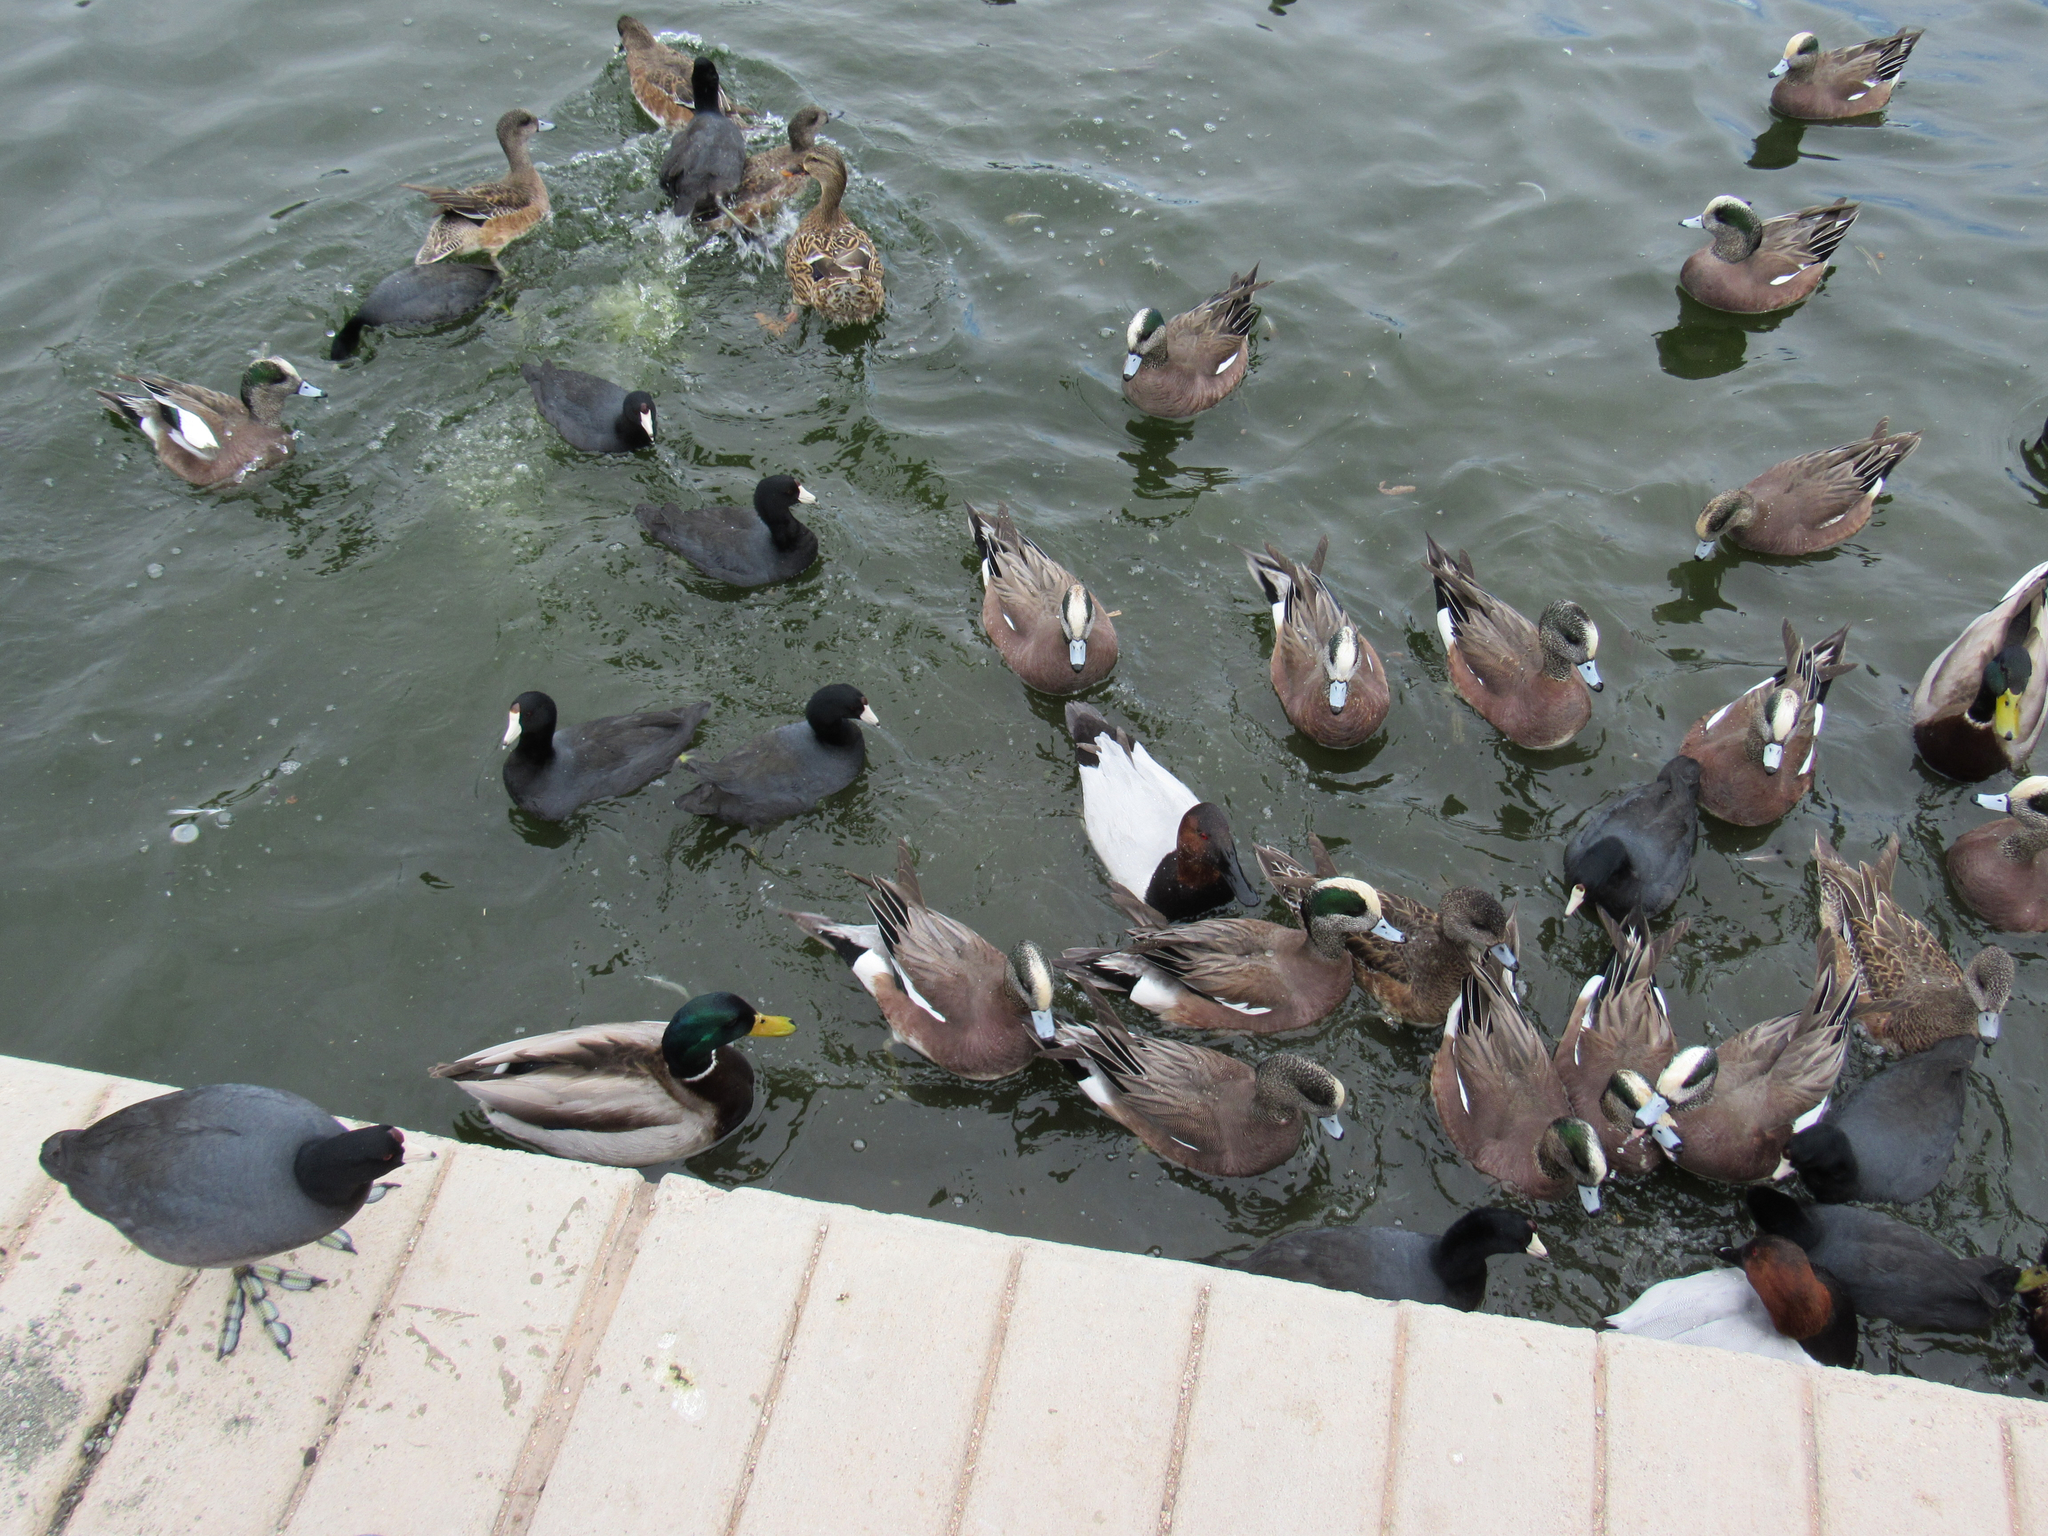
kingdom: Animalia
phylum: Chordata
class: Aves
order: Anseriformes
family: Anatidae
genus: Mareca
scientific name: Mareca americana
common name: American wigeon
